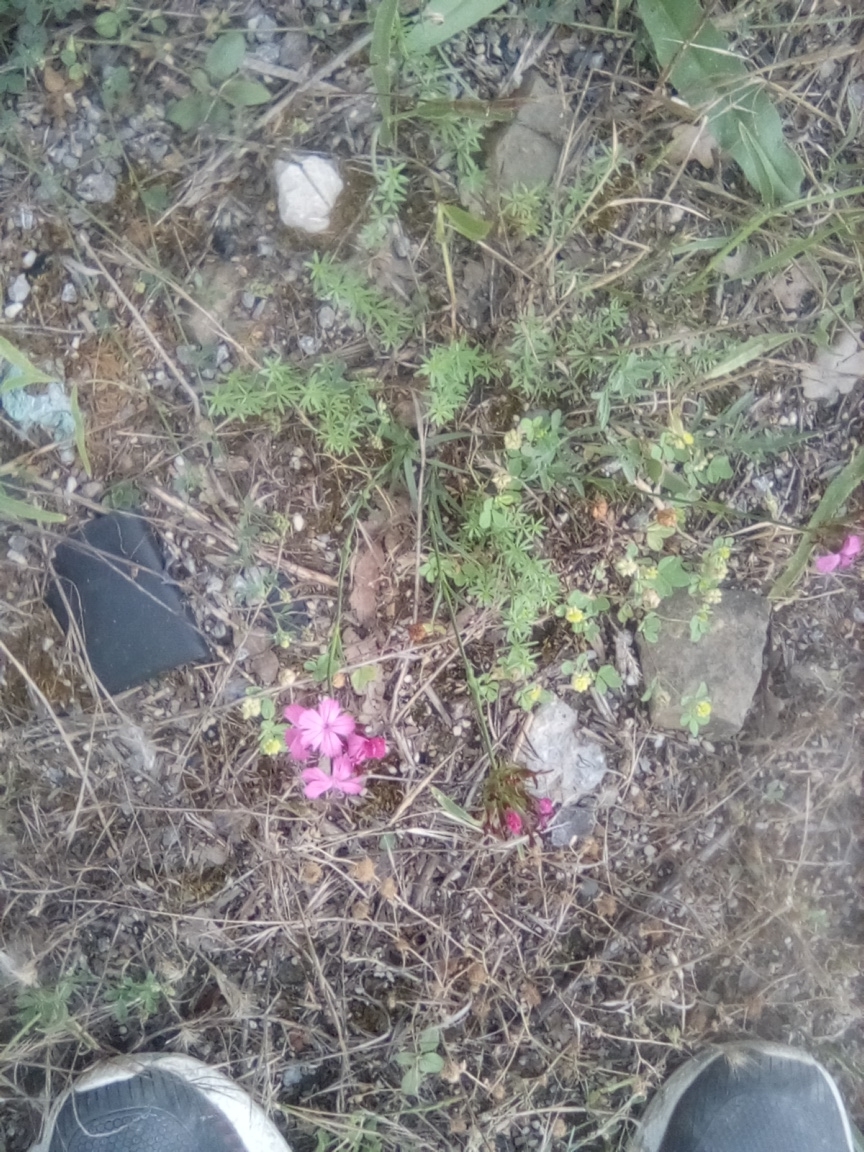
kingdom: Plantae
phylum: Tracheophyta
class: Magnoliopsida
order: Caryophyllales
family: Caryophyllaceae
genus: Dianthus
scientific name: Dianthus capitatus
